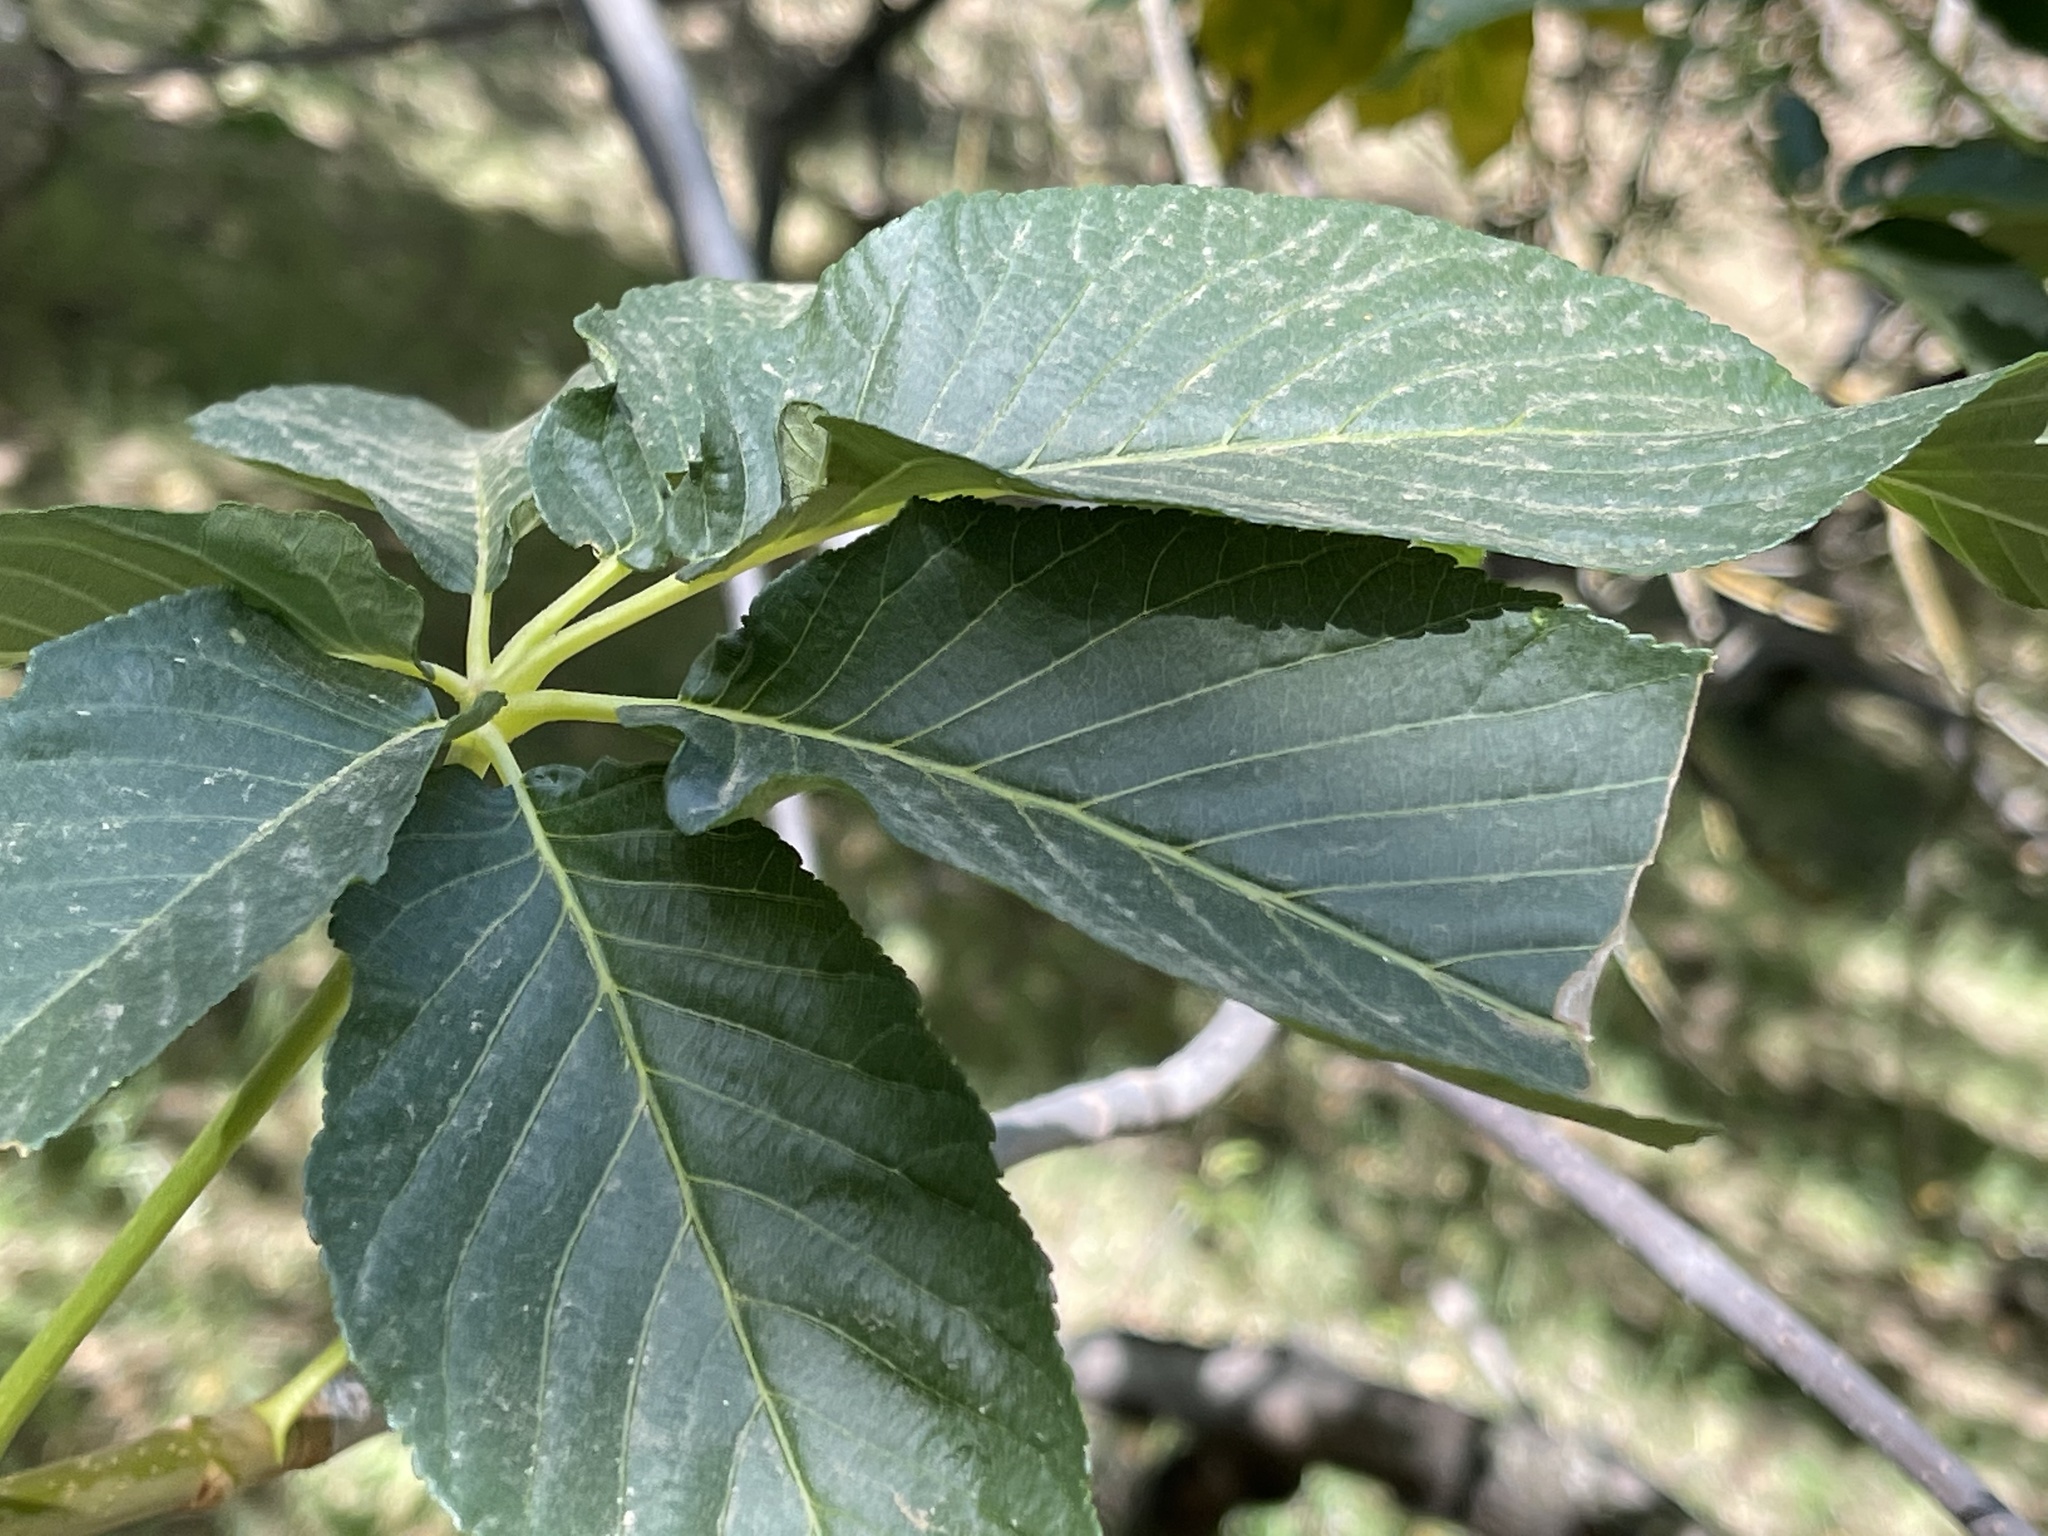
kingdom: Plantae
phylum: Tracheophyta
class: Magnoliopsida
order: Sapindales
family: Sapindaceae
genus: Aesculus
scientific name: Aesculus californica
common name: California buckeye
